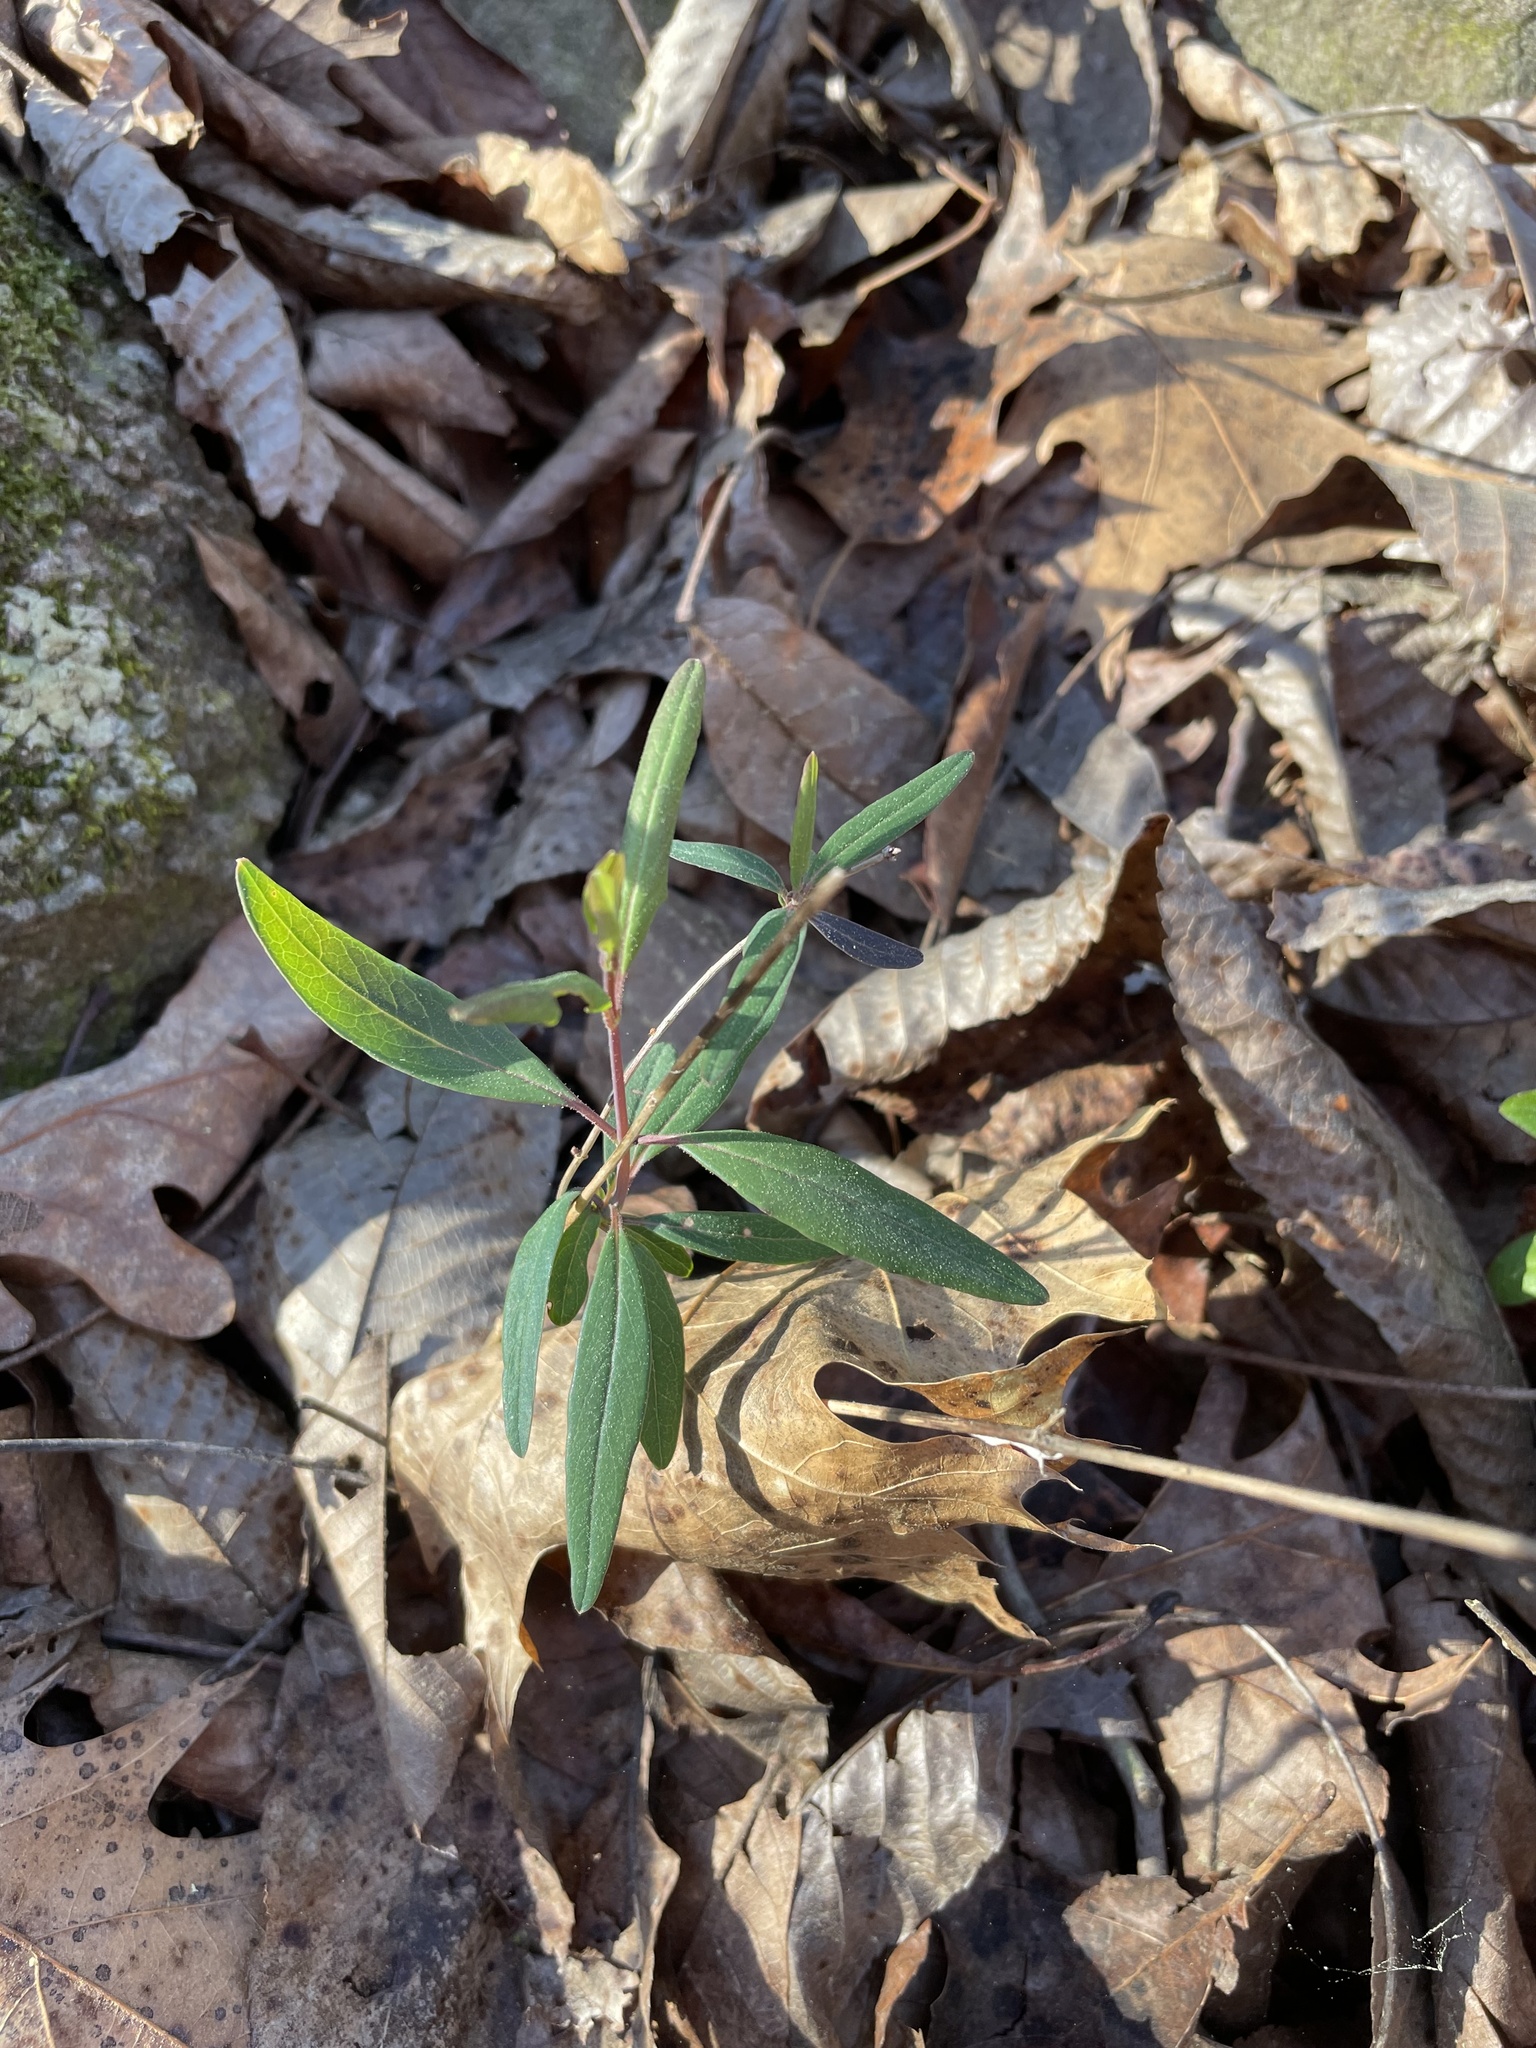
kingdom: Plantae
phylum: Tracheophyta
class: Magnoliopsida
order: Dipsacales
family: Caprifoliaceae
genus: Lonicera
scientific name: Lonicera sempervirens
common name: Coral honeysuckle
